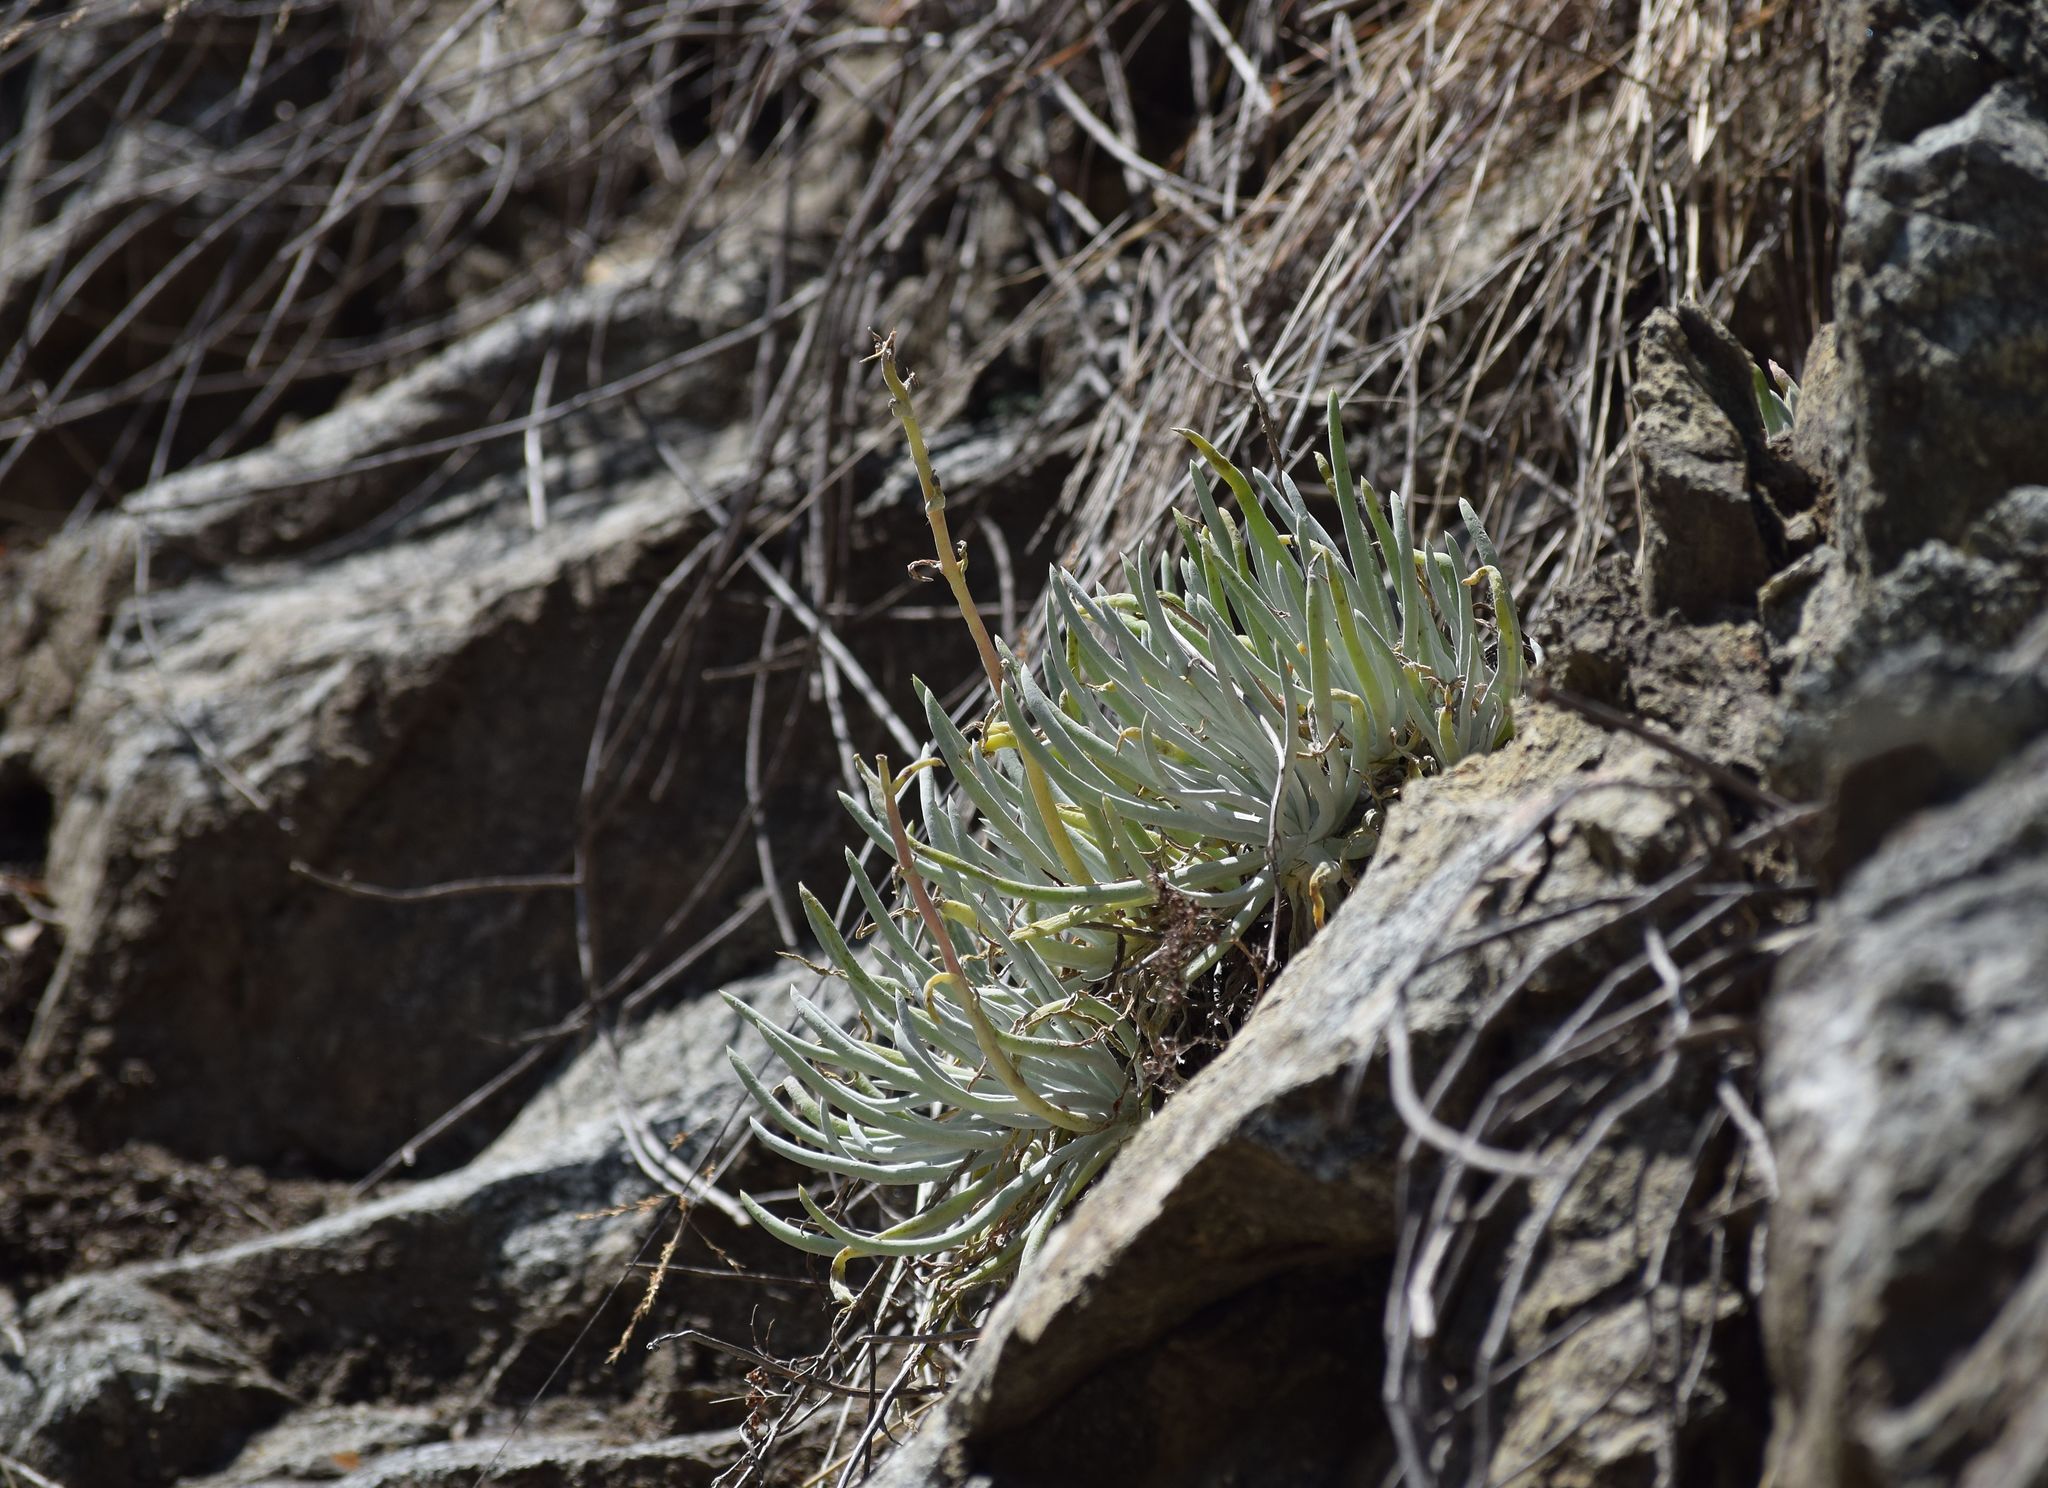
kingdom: Plantae
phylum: Tracheophyta
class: Magnoliopsida
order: Saxifragales
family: Crassulaceae
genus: Dudleya
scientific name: Dudleya densiflora
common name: San gabriel mountains dudleya
